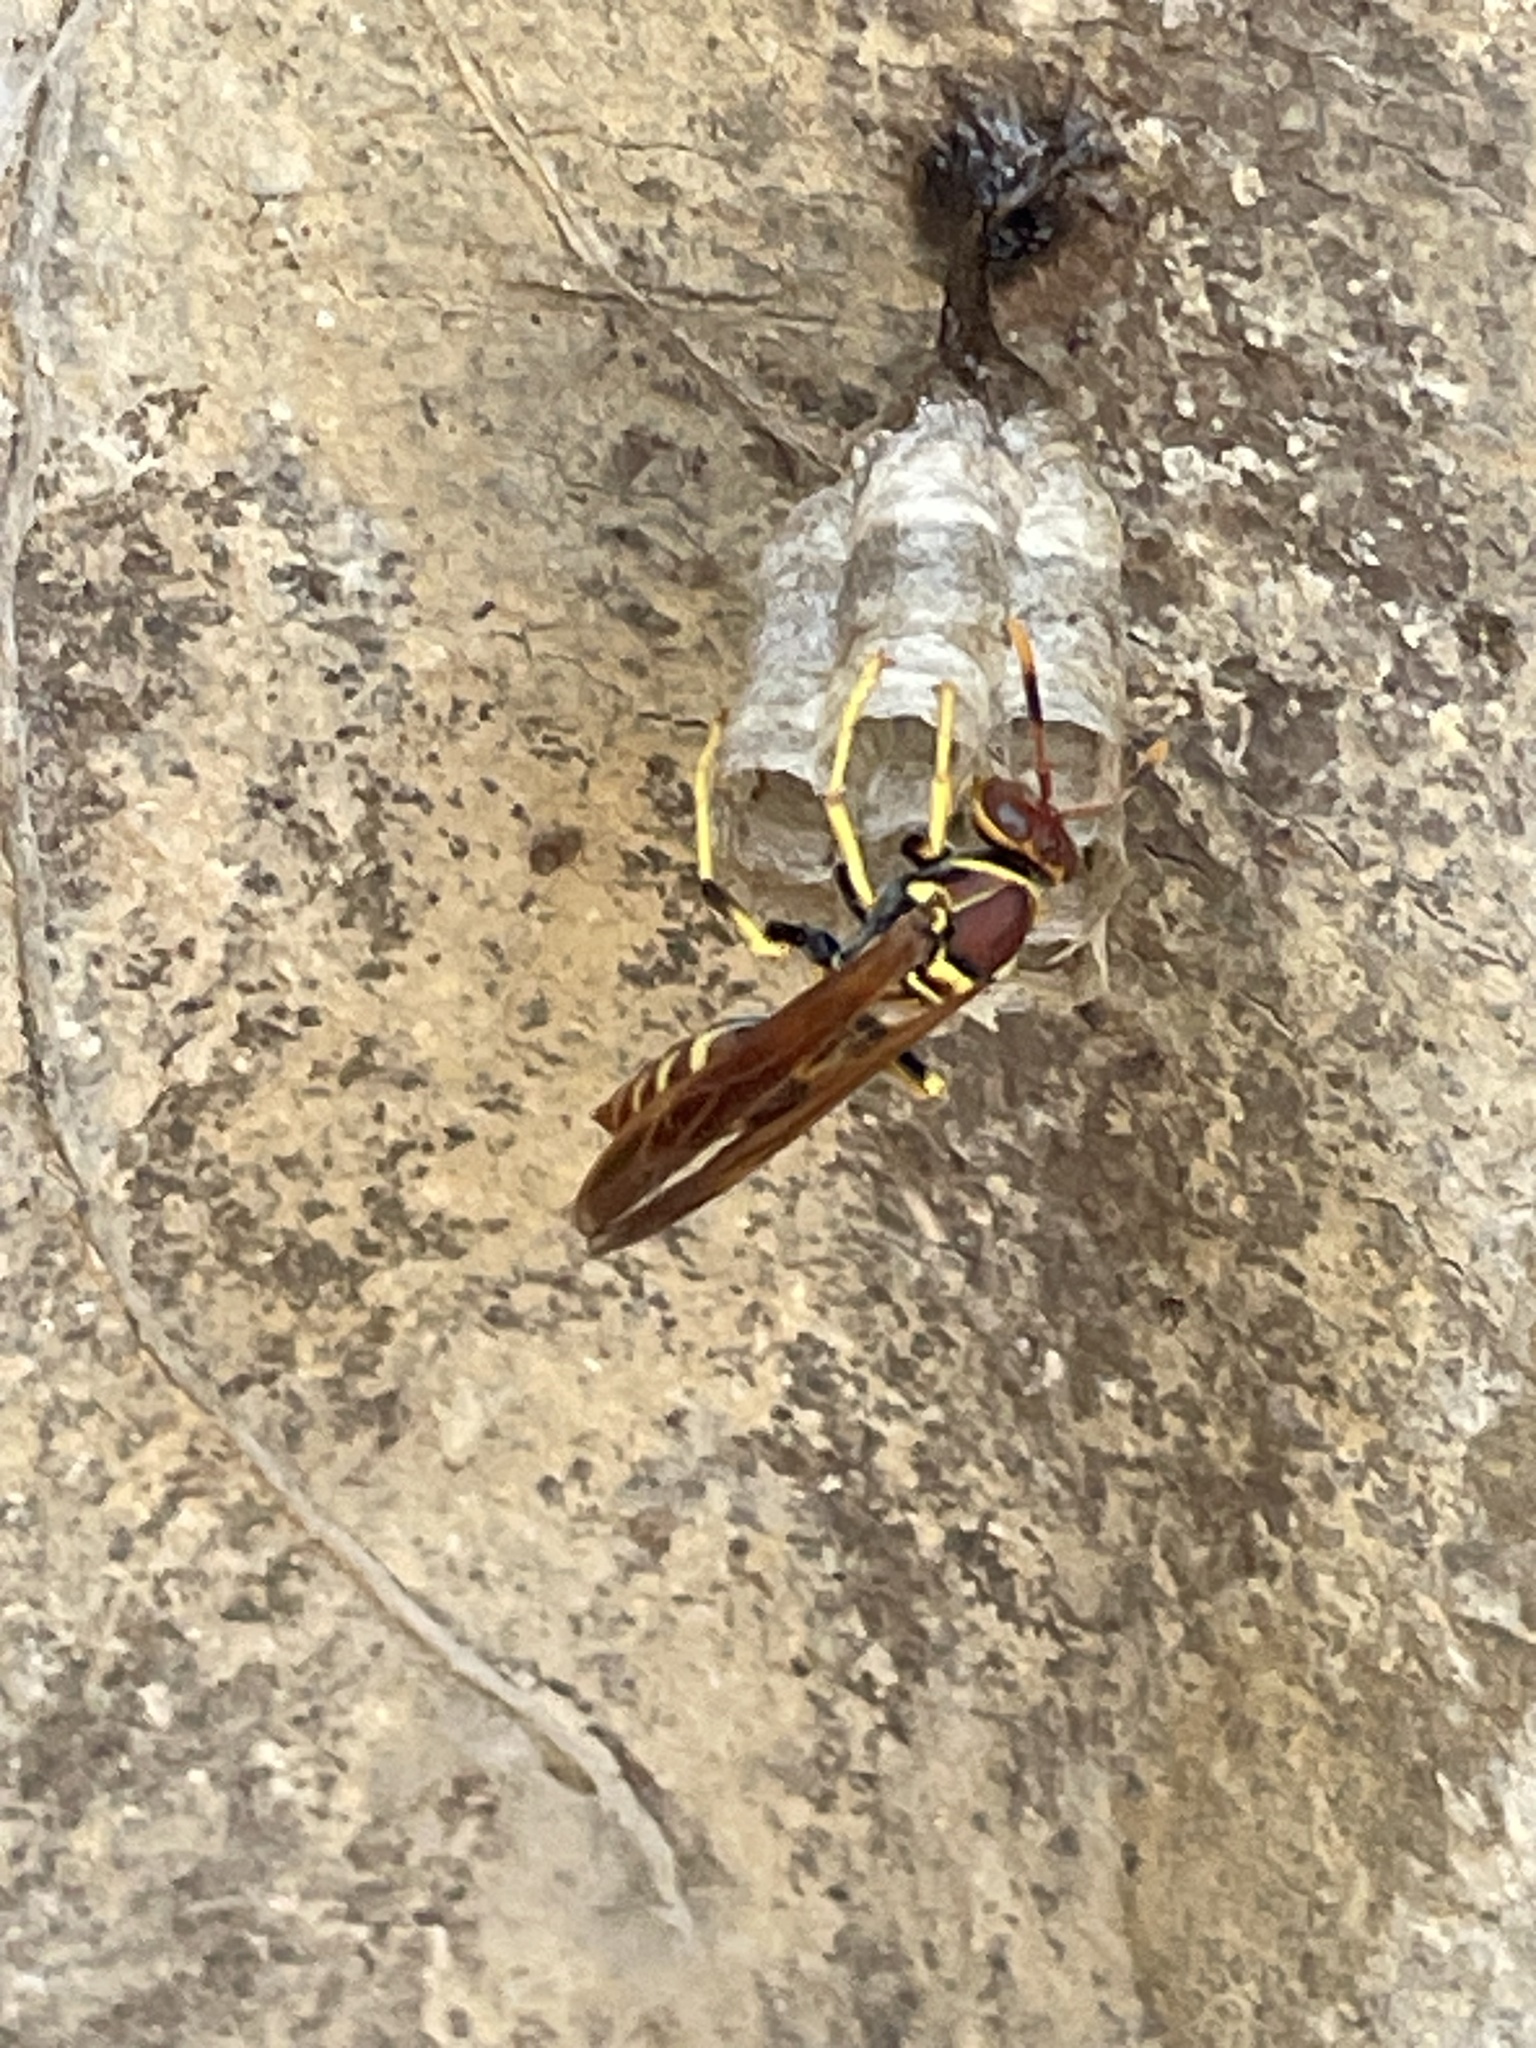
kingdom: Animalia
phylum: Arthropoda
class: Insecta
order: Hymenoptera
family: Eumenidae
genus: Polistes
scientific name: Polistes crinitus
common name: Jack spaniard
